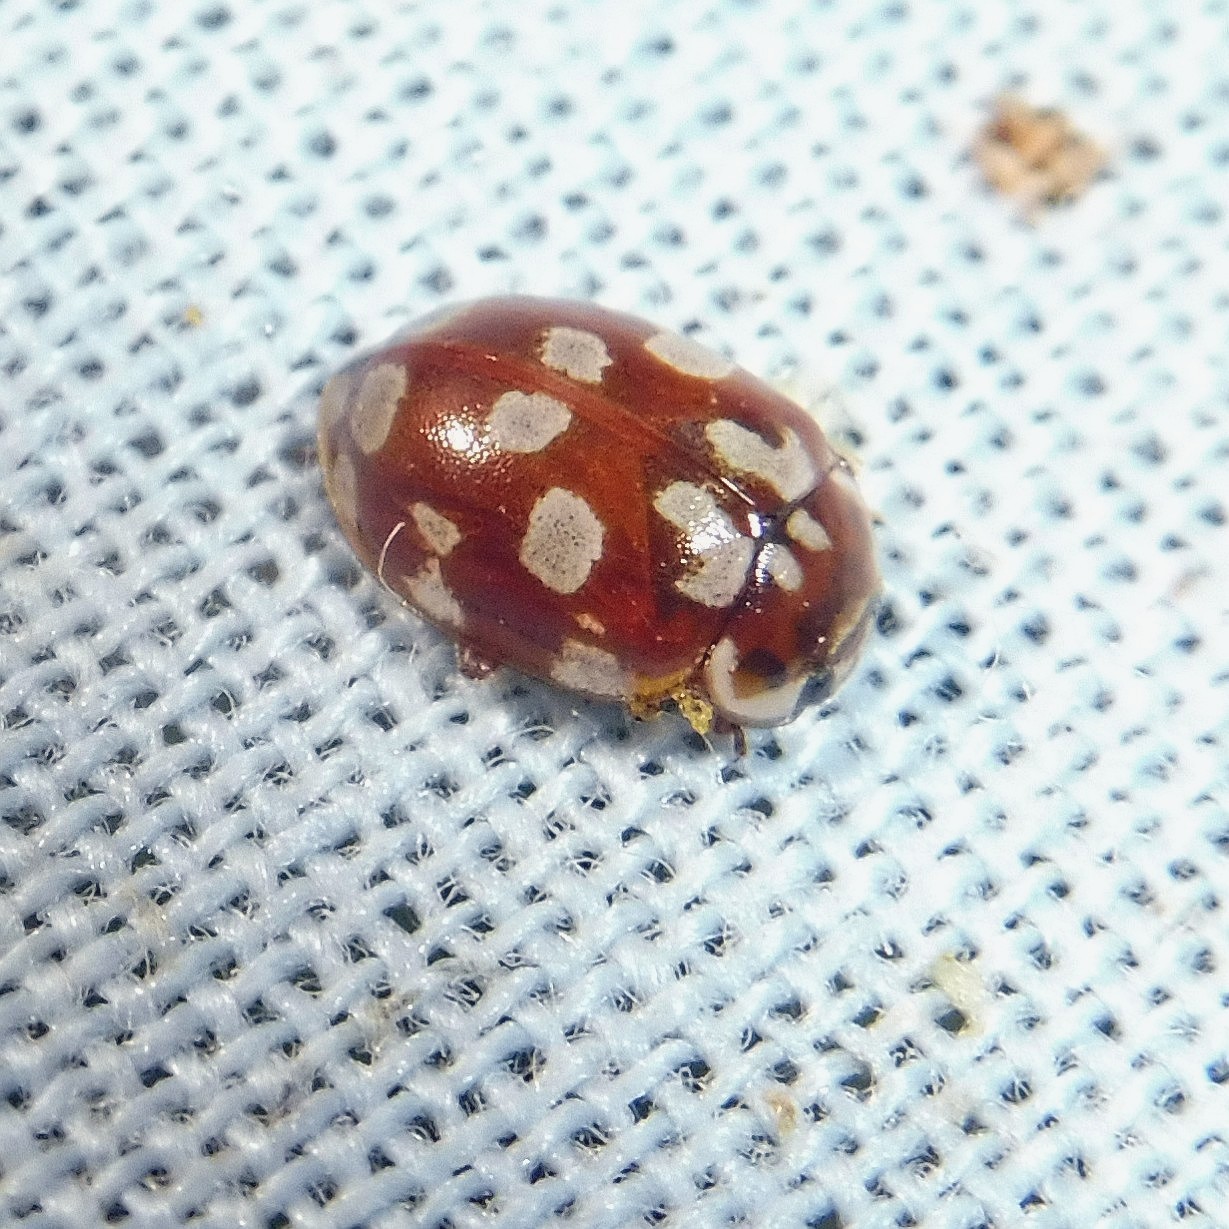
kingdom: Animalia
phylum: Arthropoda
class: Insecta
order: Coleoptera
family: Coccinellidae
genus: Myrrha
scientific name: Myrrha octodecimguttata
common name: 18-spot ladybird
